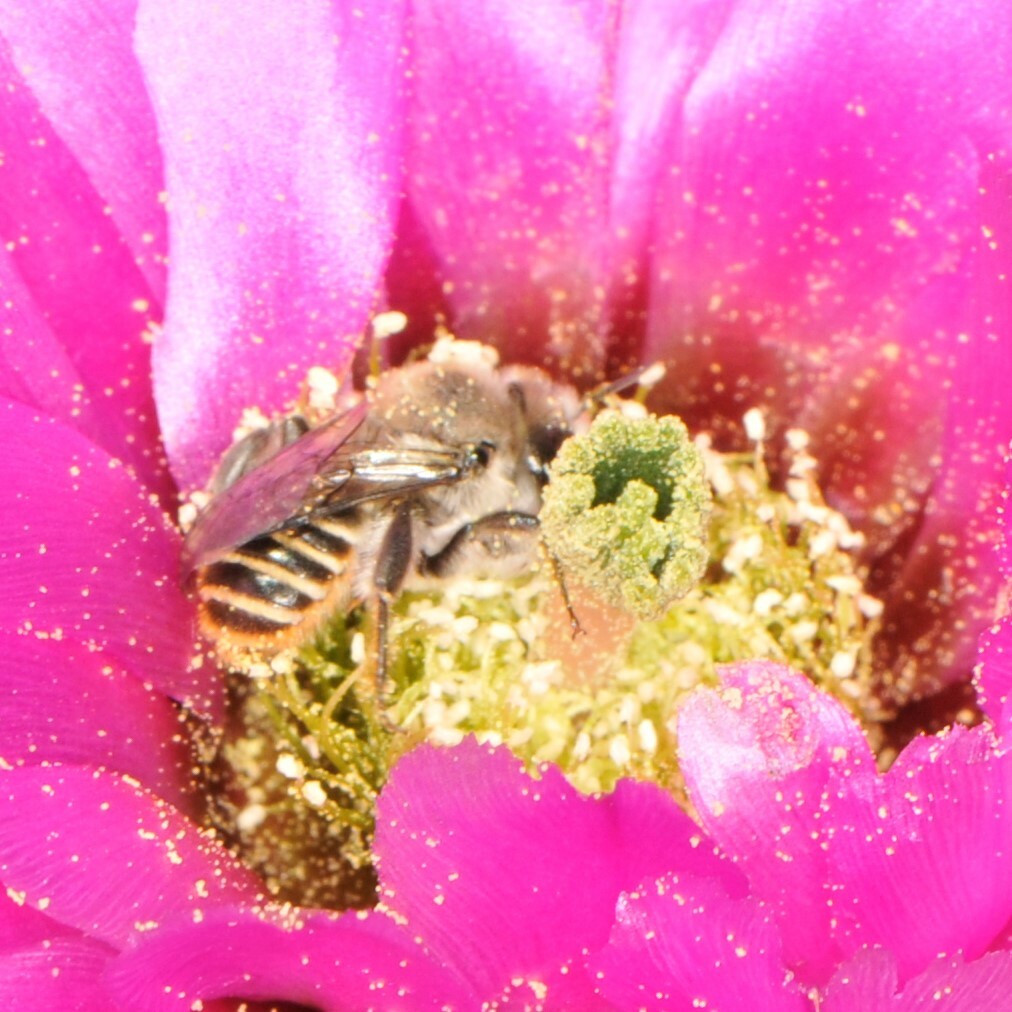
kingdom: Animalia
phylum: Arthropoda
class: Insecta
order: Hymenoptera
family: Megachilidae
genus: Lithurgopsis
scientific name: Lithurgopsis apicalis
